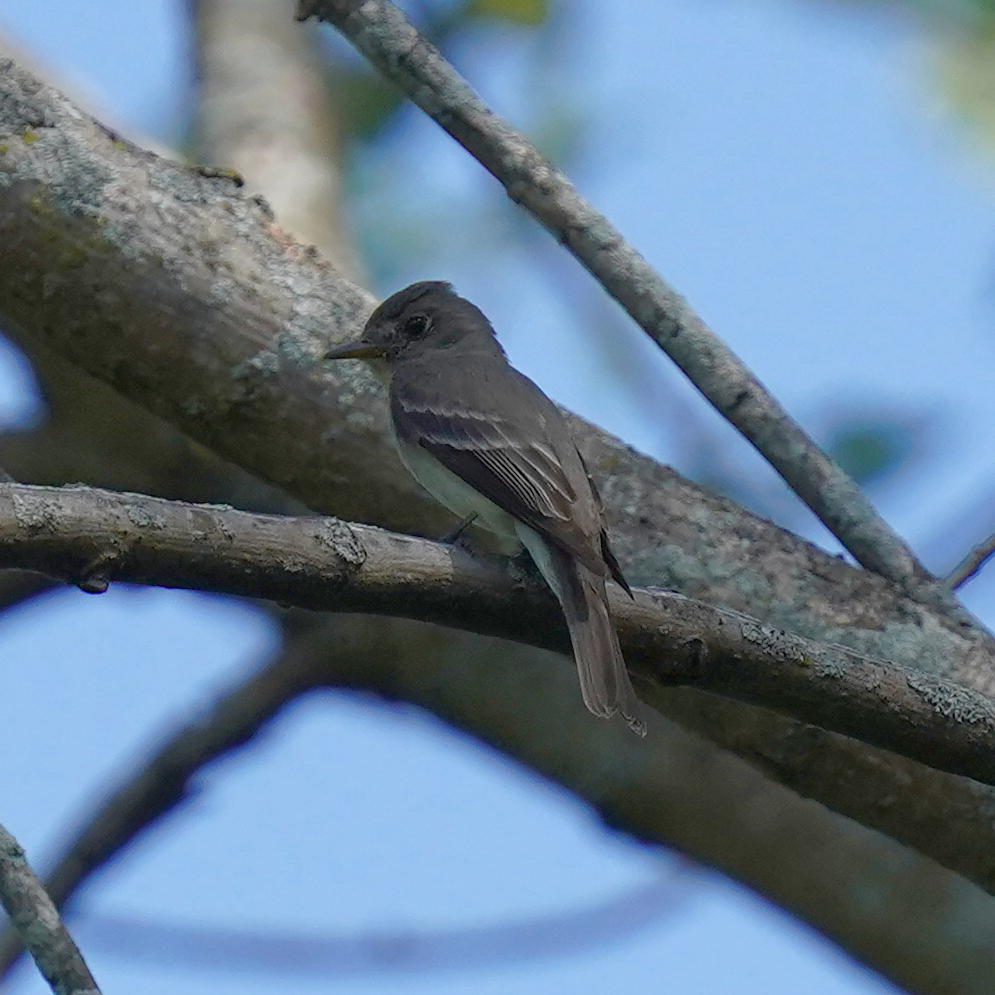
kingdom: Animalia
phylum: Chordata
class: Aves
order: Passeriformes
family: Tyrannidae
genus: Contopus
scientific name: Contopus virens
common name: Eastern wood-pewee
